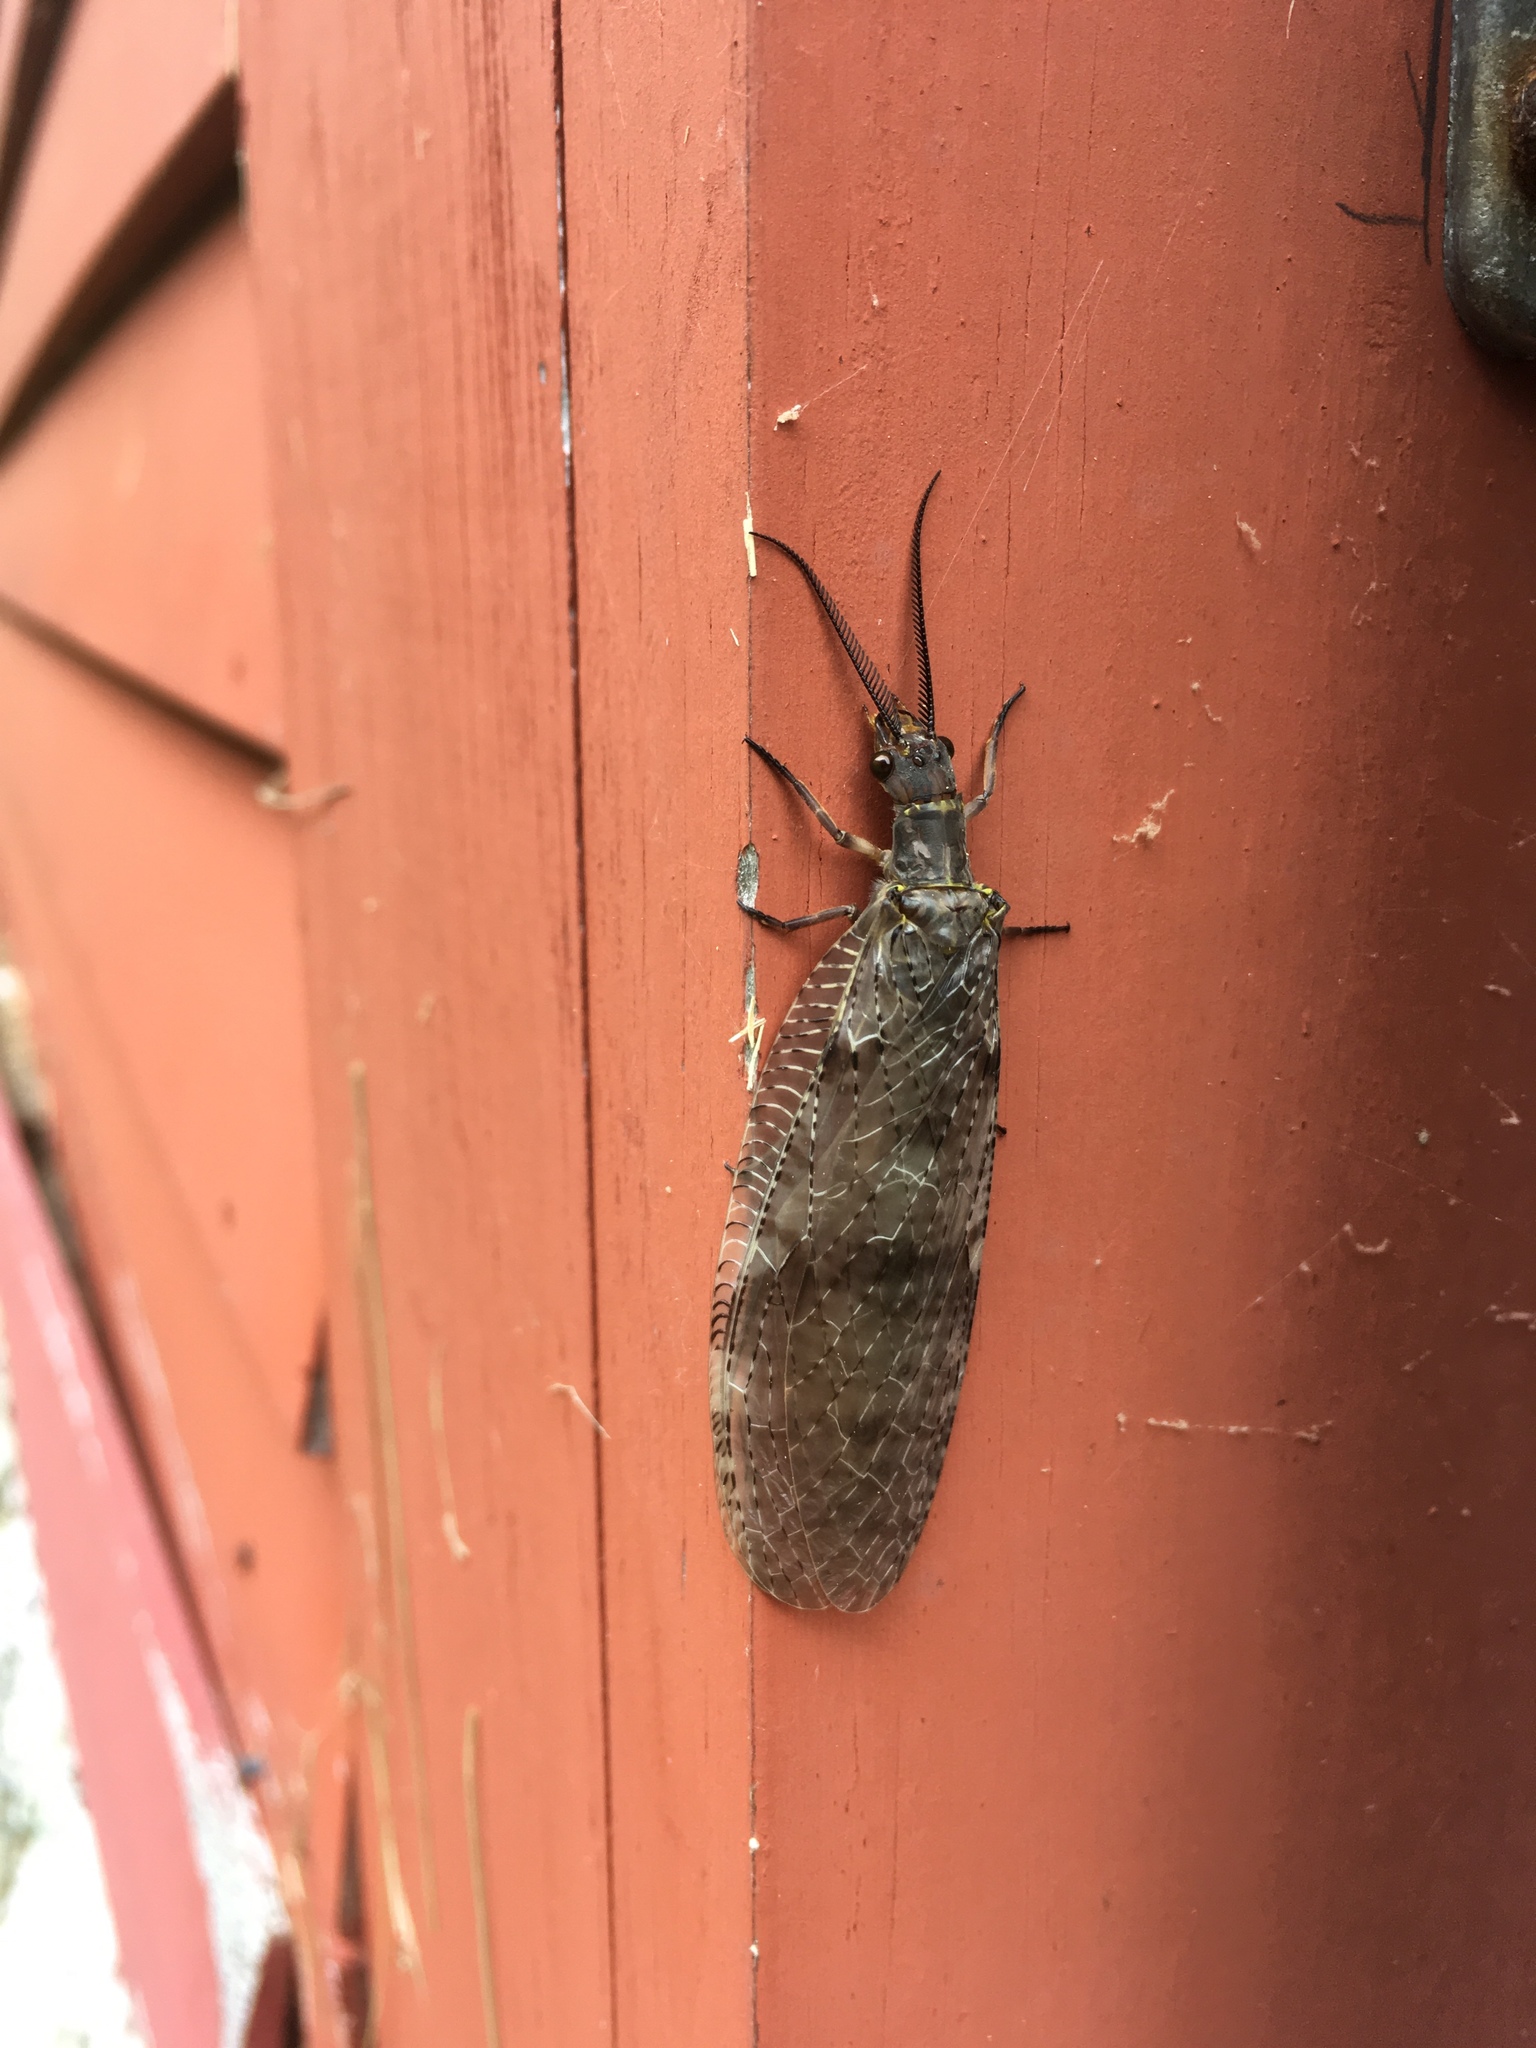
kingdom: Animalia
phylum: Arthropoda
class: Insecta
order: Megaloptera
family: Corydalidae
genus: Chauliodes
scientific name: Chauliodes pectinicornis
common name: Summer fishfly
